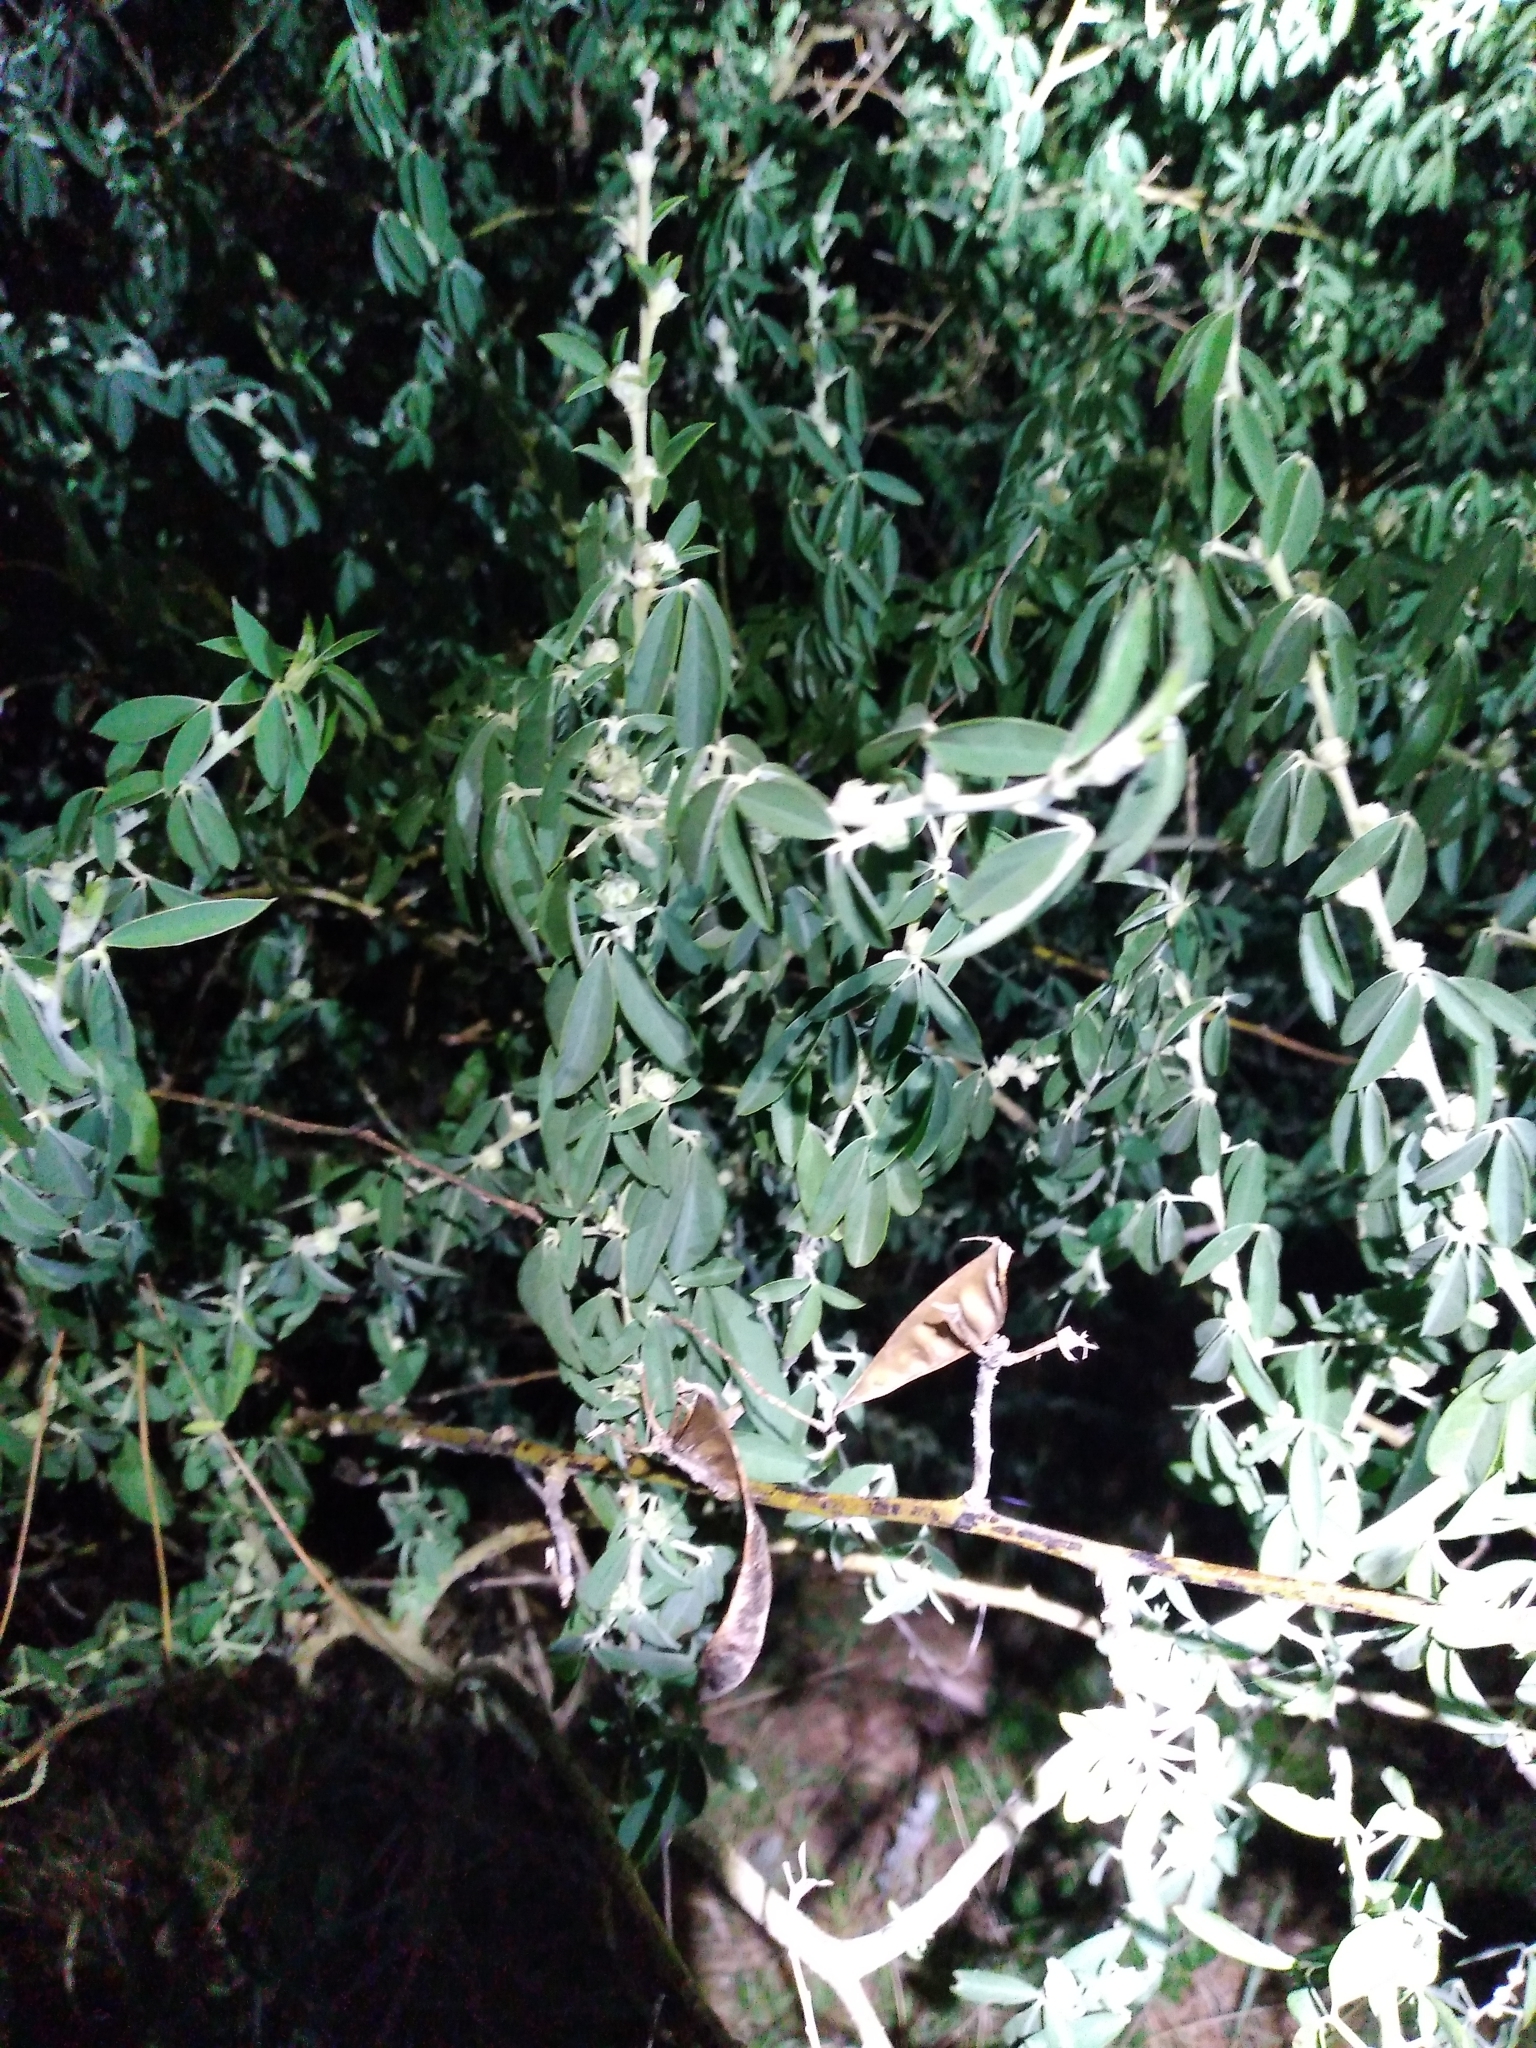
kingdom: Plantae
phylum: Tracheophyta
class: Magnoliopsida
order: Fabales
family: Fabaceae
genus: Chamaecytisus
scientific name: Chamaecytisus prolifer
